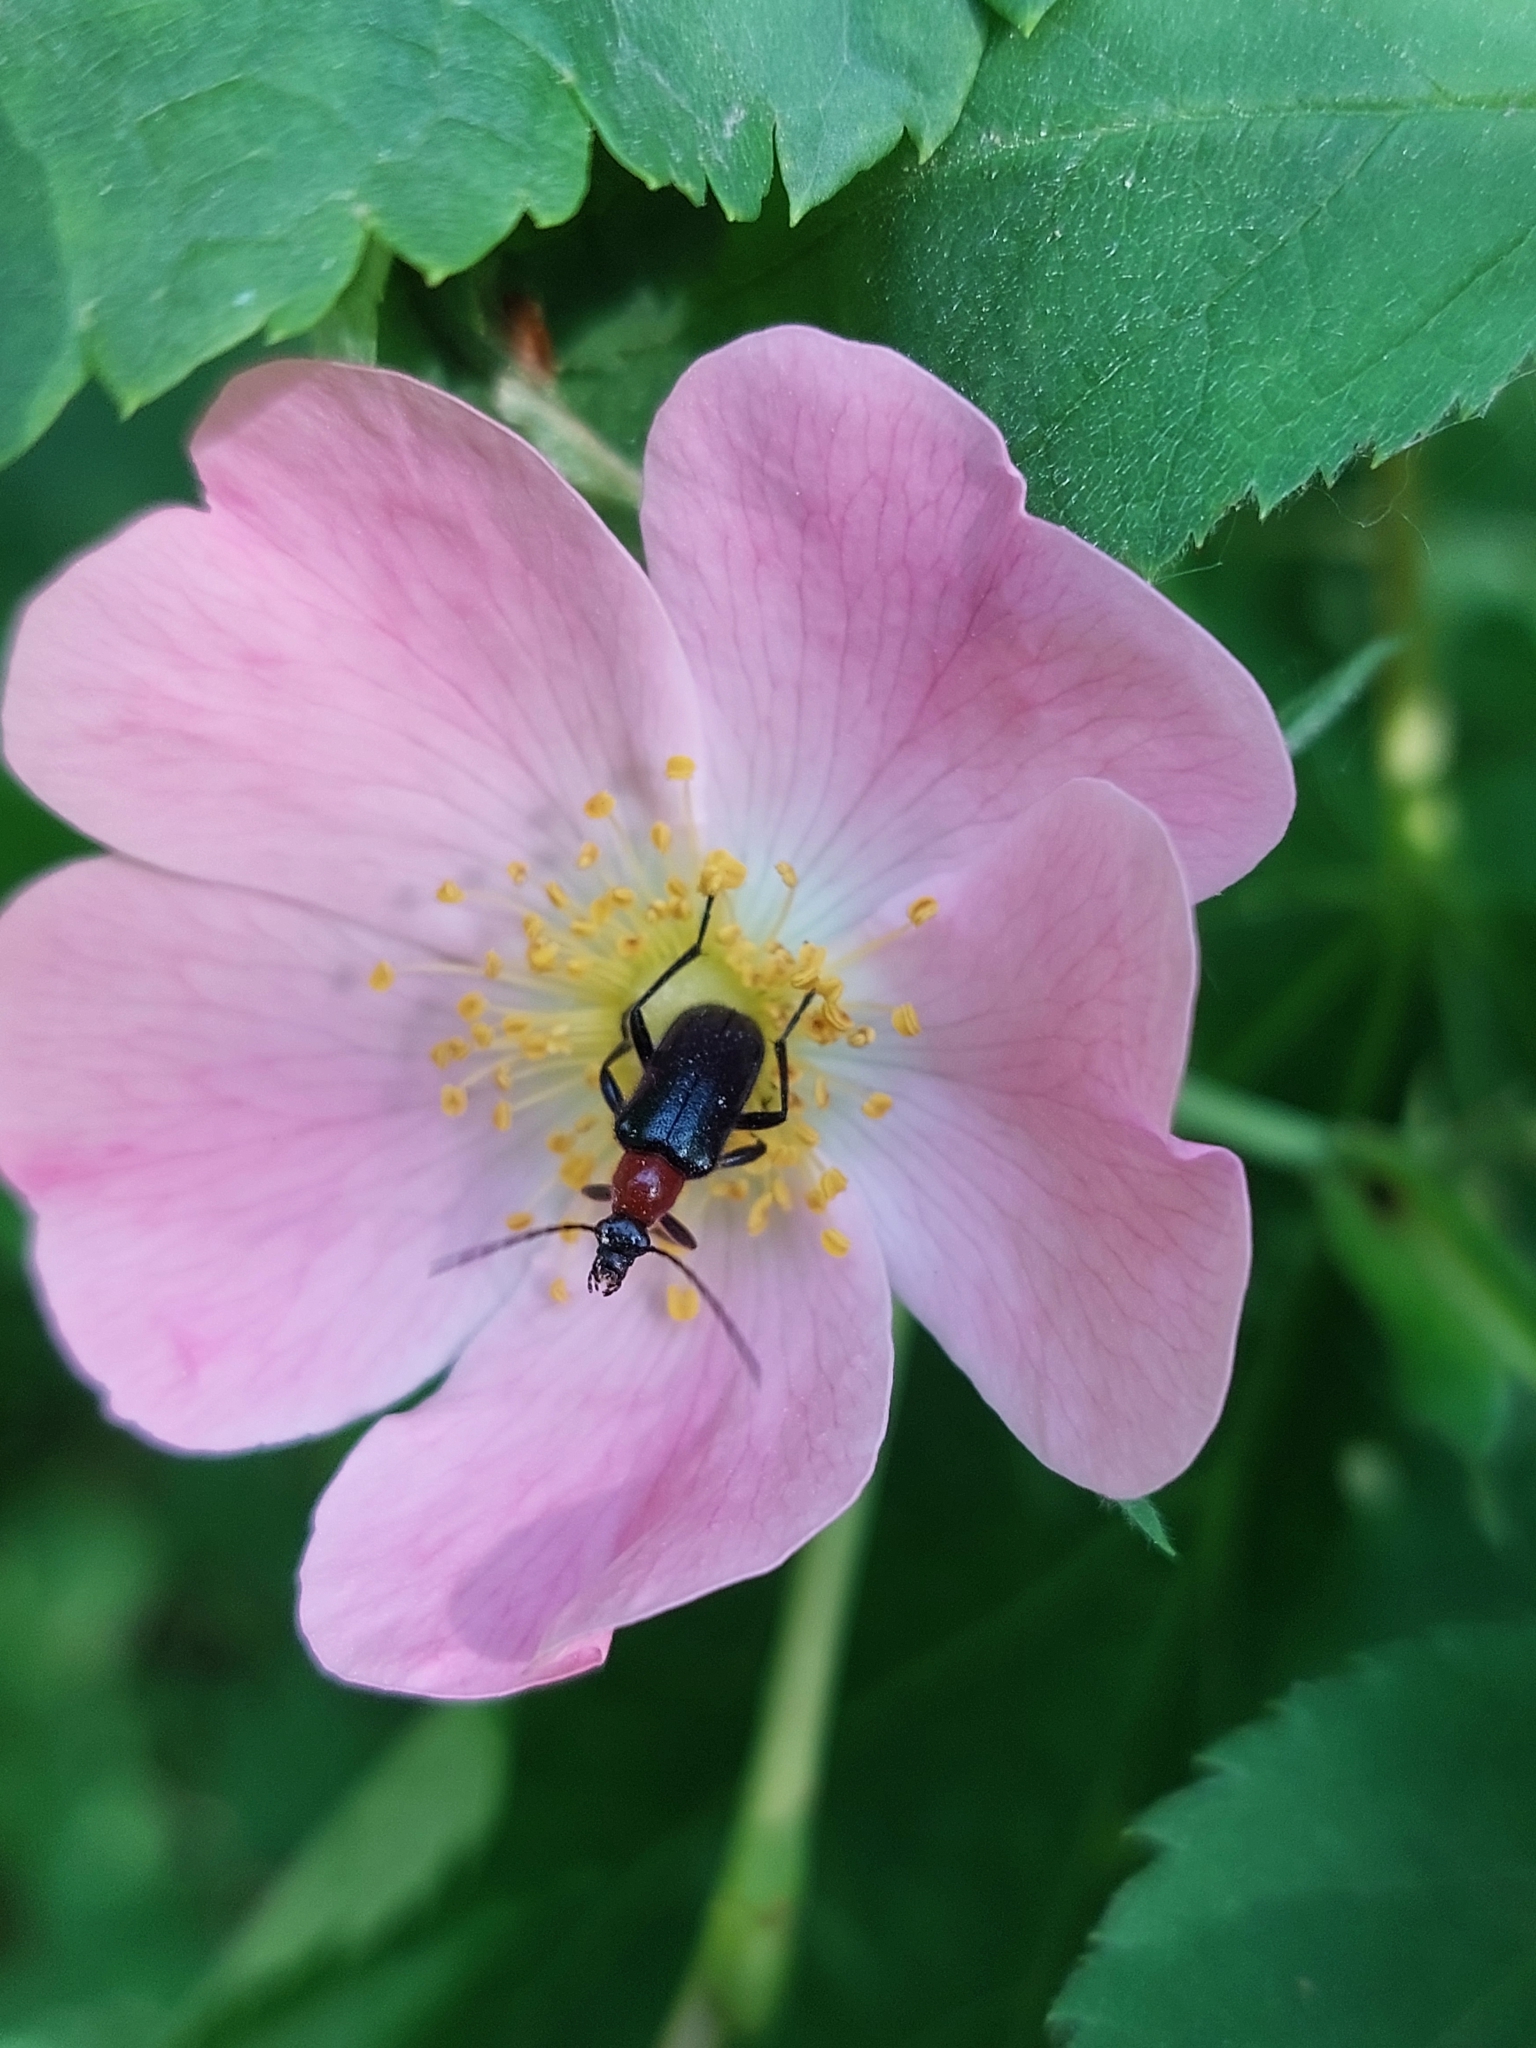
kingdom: Animalia
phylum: Arthropoda
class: Insecta
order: Coleoptera
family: Cerambycidae
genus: Dinoptera
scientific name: Dinoptera collaris
